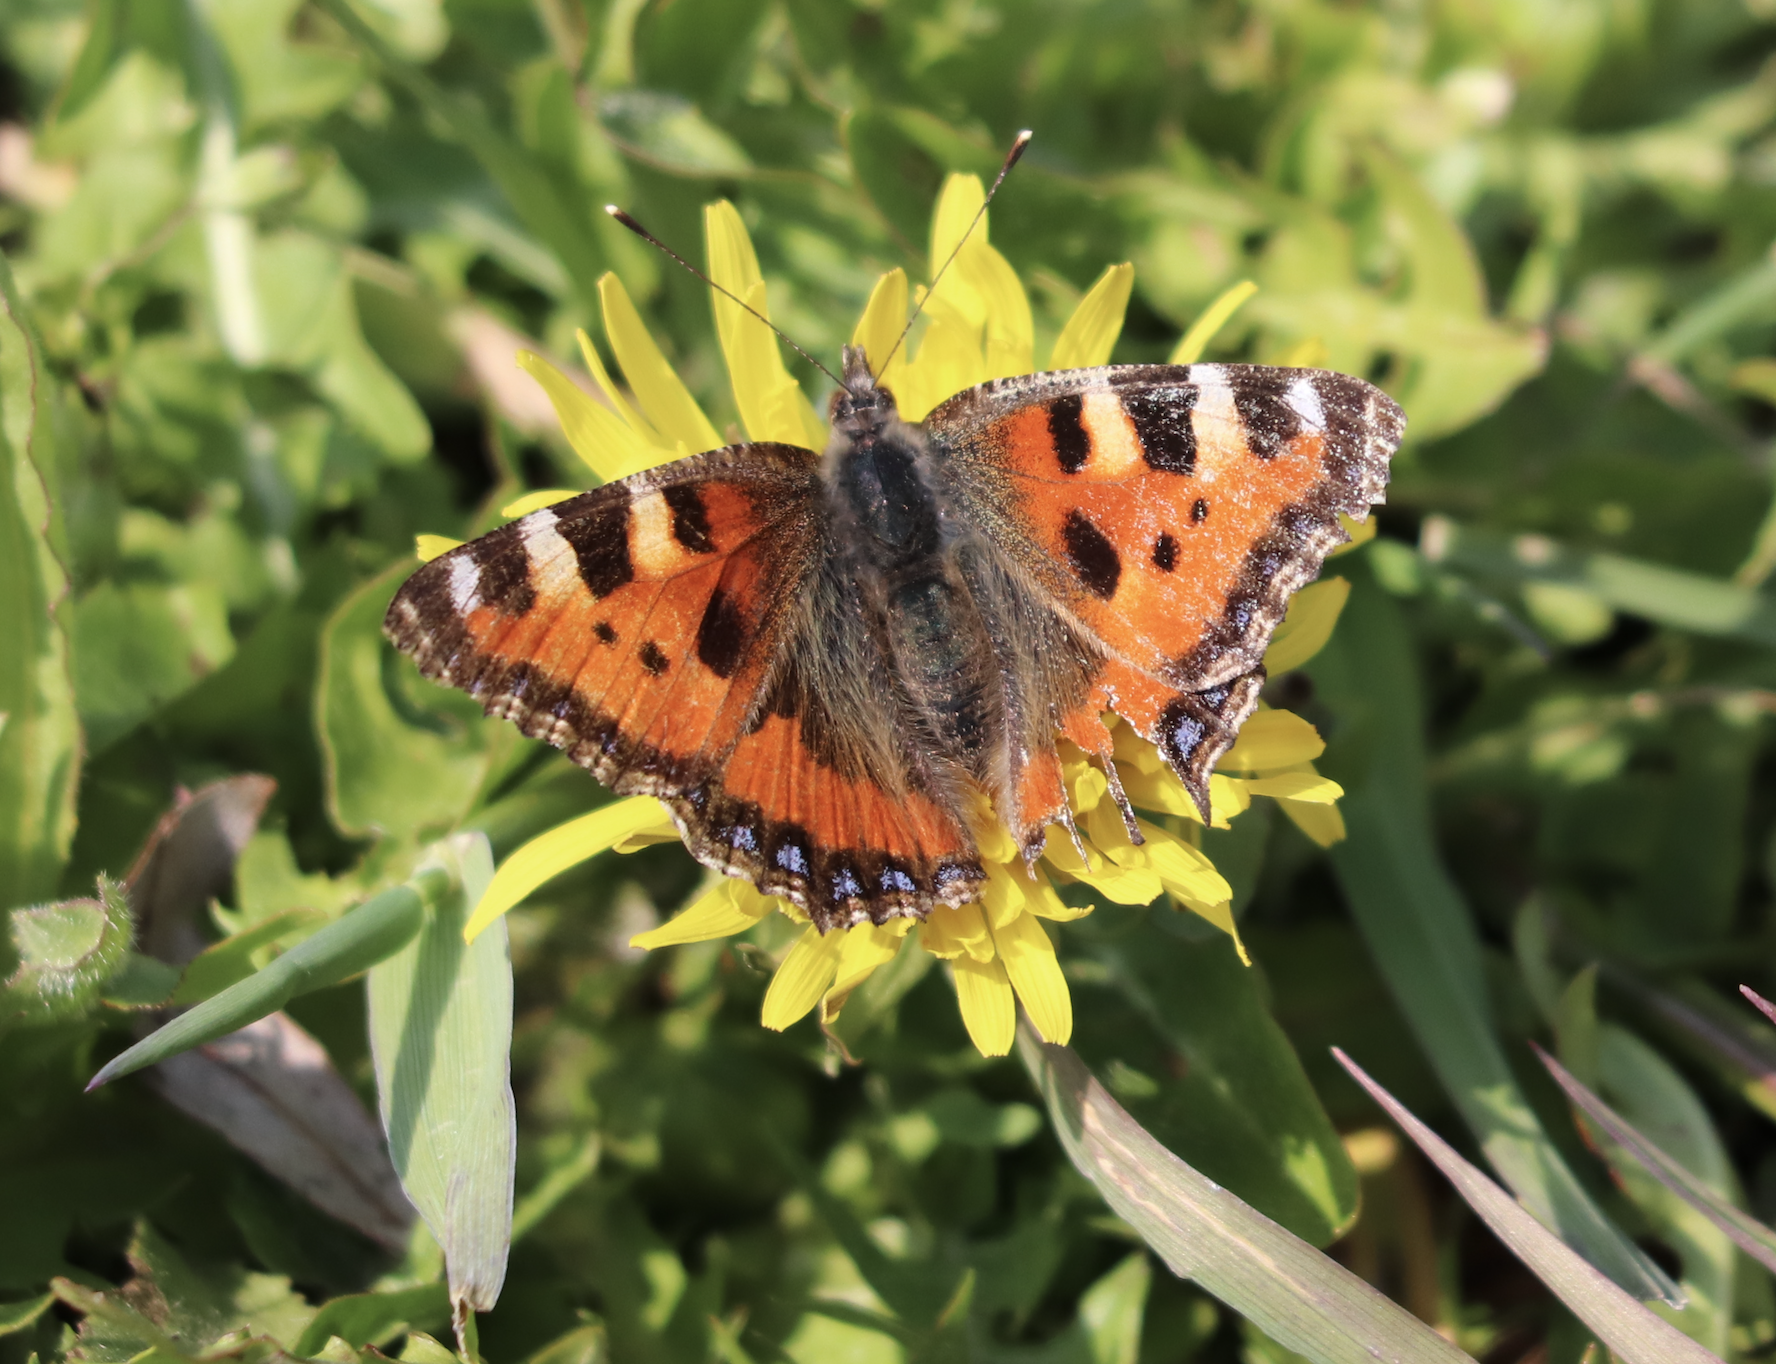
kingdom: Animalia
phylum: Arthropoda
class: Insecta
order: Lepidoptera
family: Nymphalidae
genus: Aglais
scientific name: Aglais urticae
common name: Small tortoiseshell
